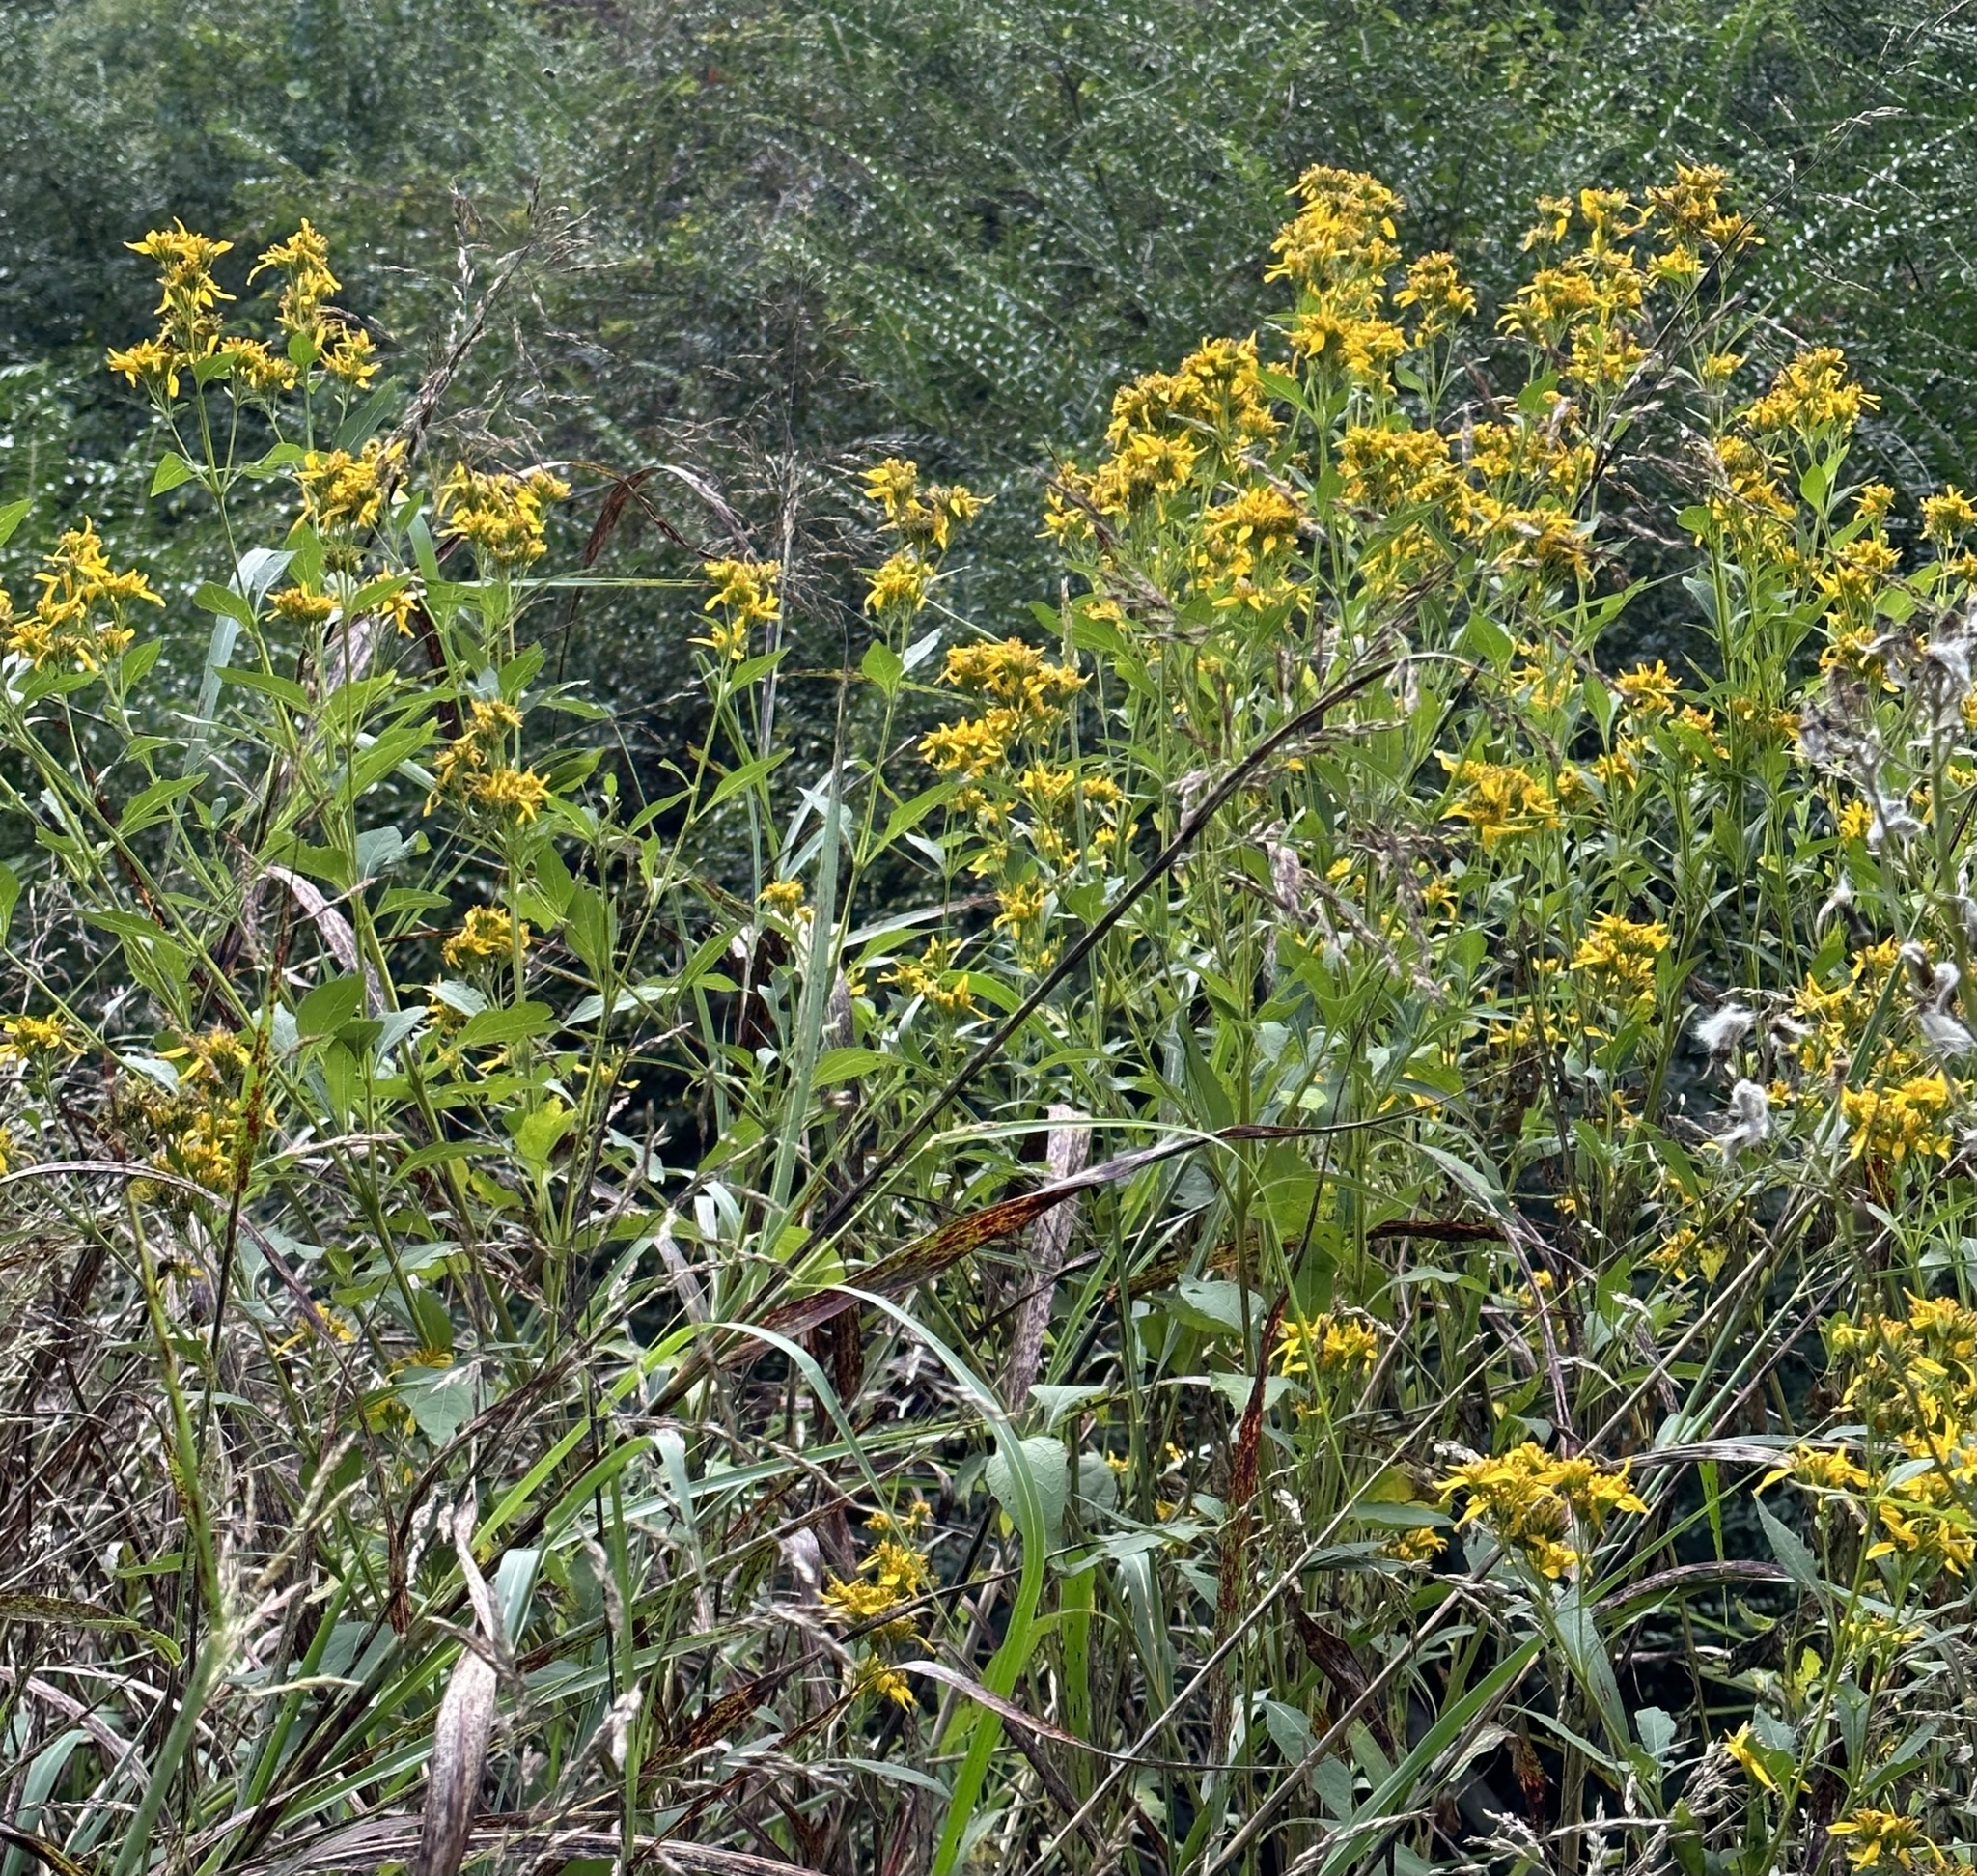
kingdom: Plantae
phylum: Tracheophyta
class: Magnoliopsida
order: Asterales
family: Asteraceae
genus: Verbesina
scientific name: Verbesina occidentalis
